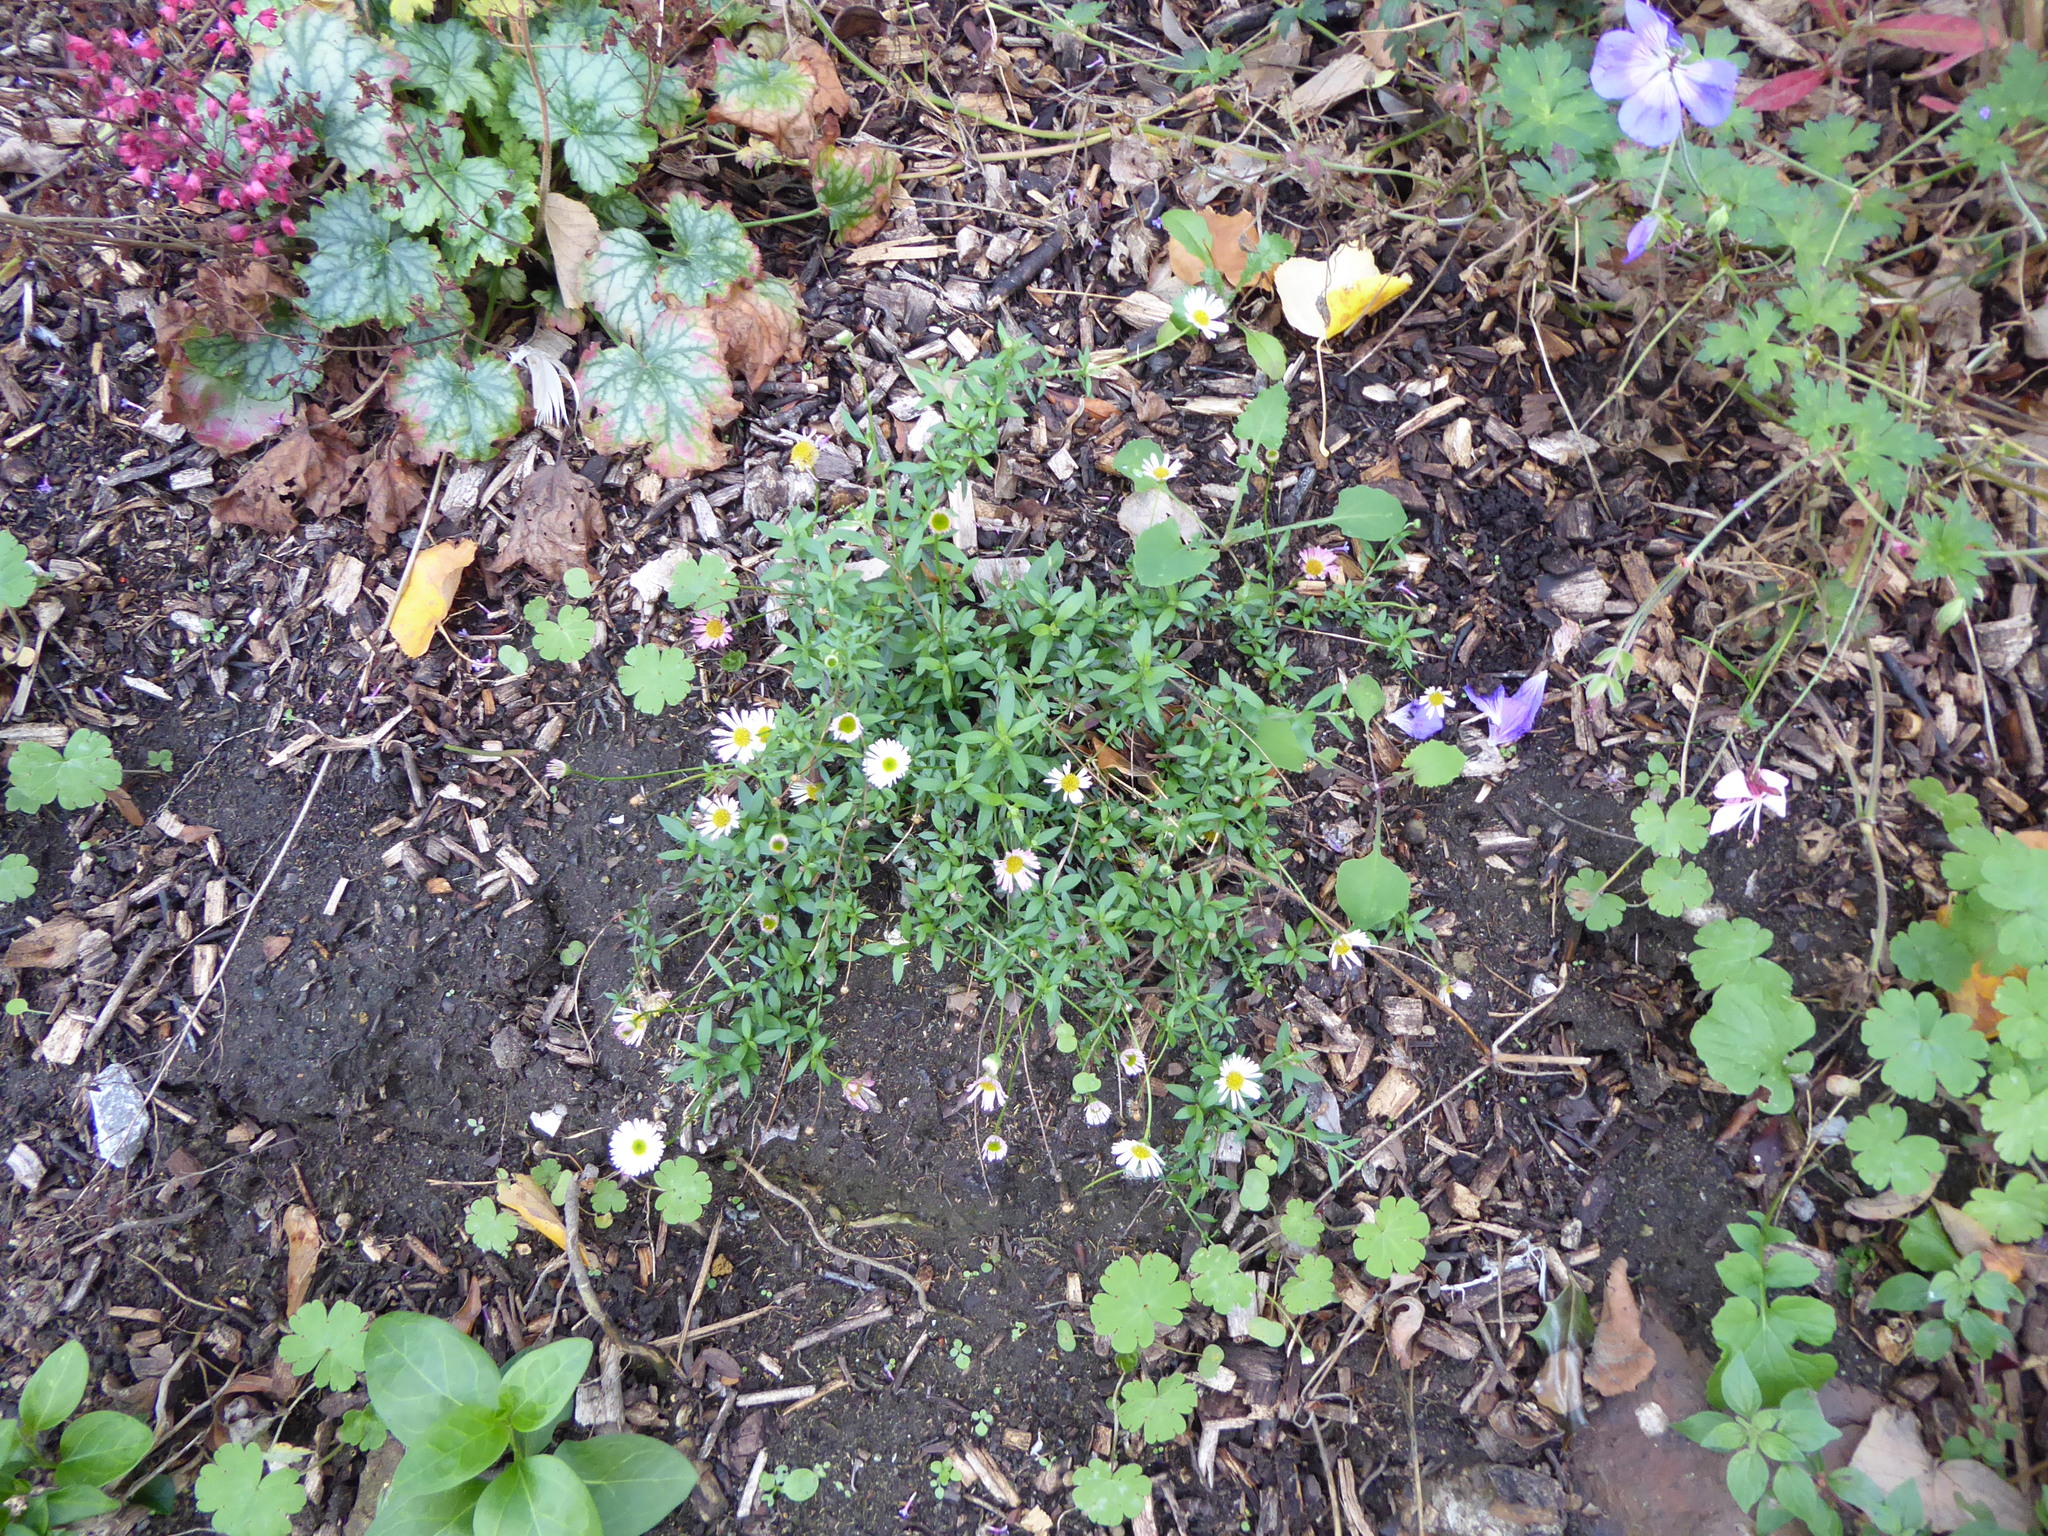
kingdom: Plantae
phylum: Tracheophyta
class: Magnoliopsida
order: Asterales
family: Asteraceae
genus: Erigeron
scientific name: Erigeron karvinskianus
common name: Mexican fleabane
